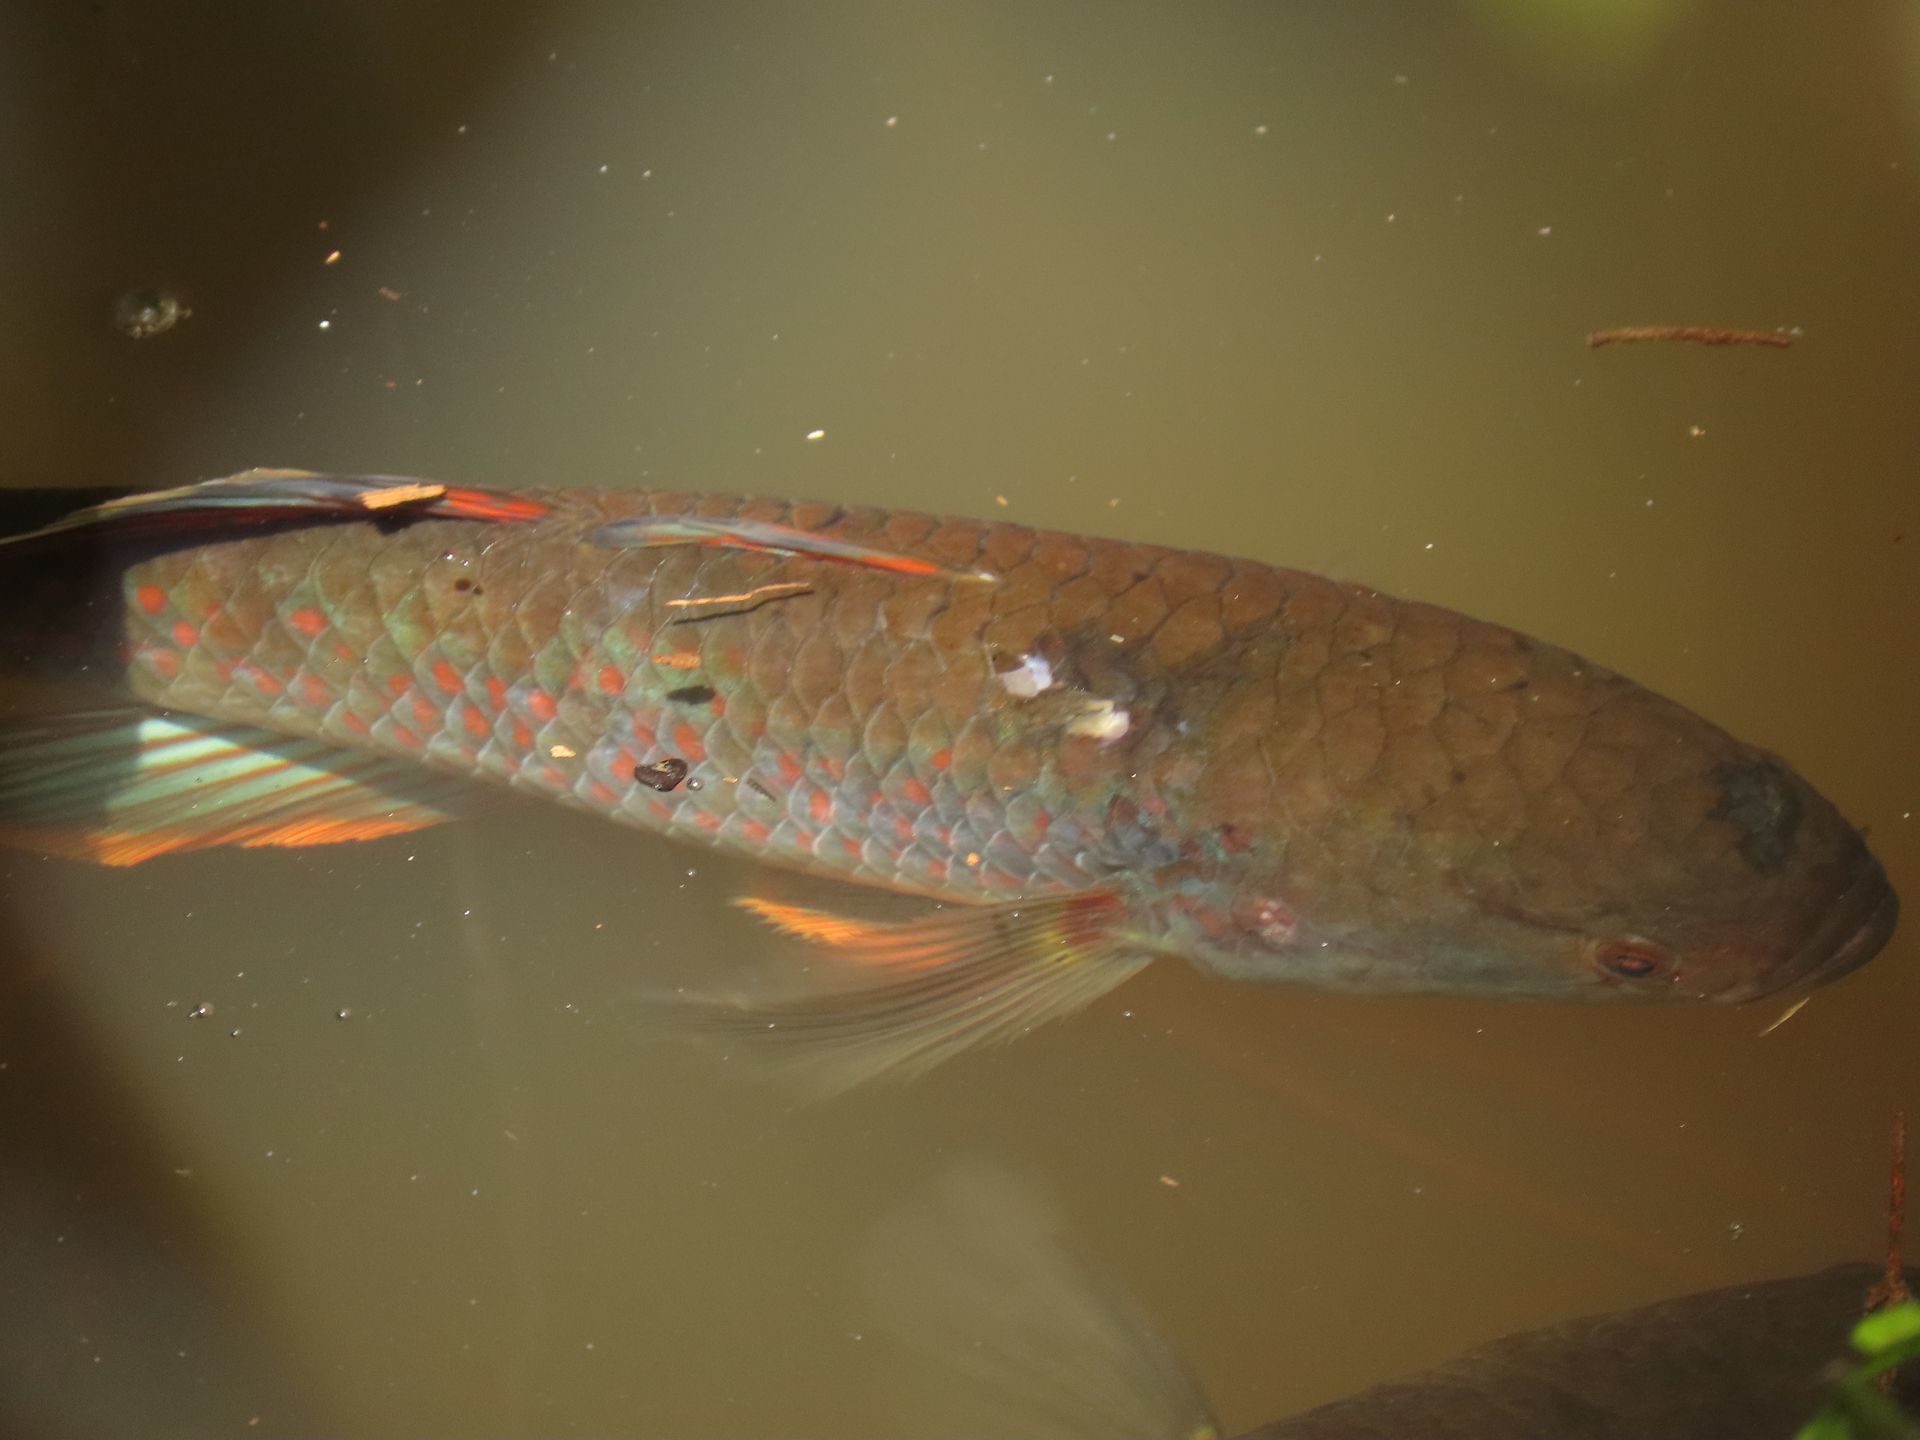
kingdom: Animalia
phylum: Chordata
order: Perciformes
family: Eleotridae
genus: Giuris
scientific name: Giuris
